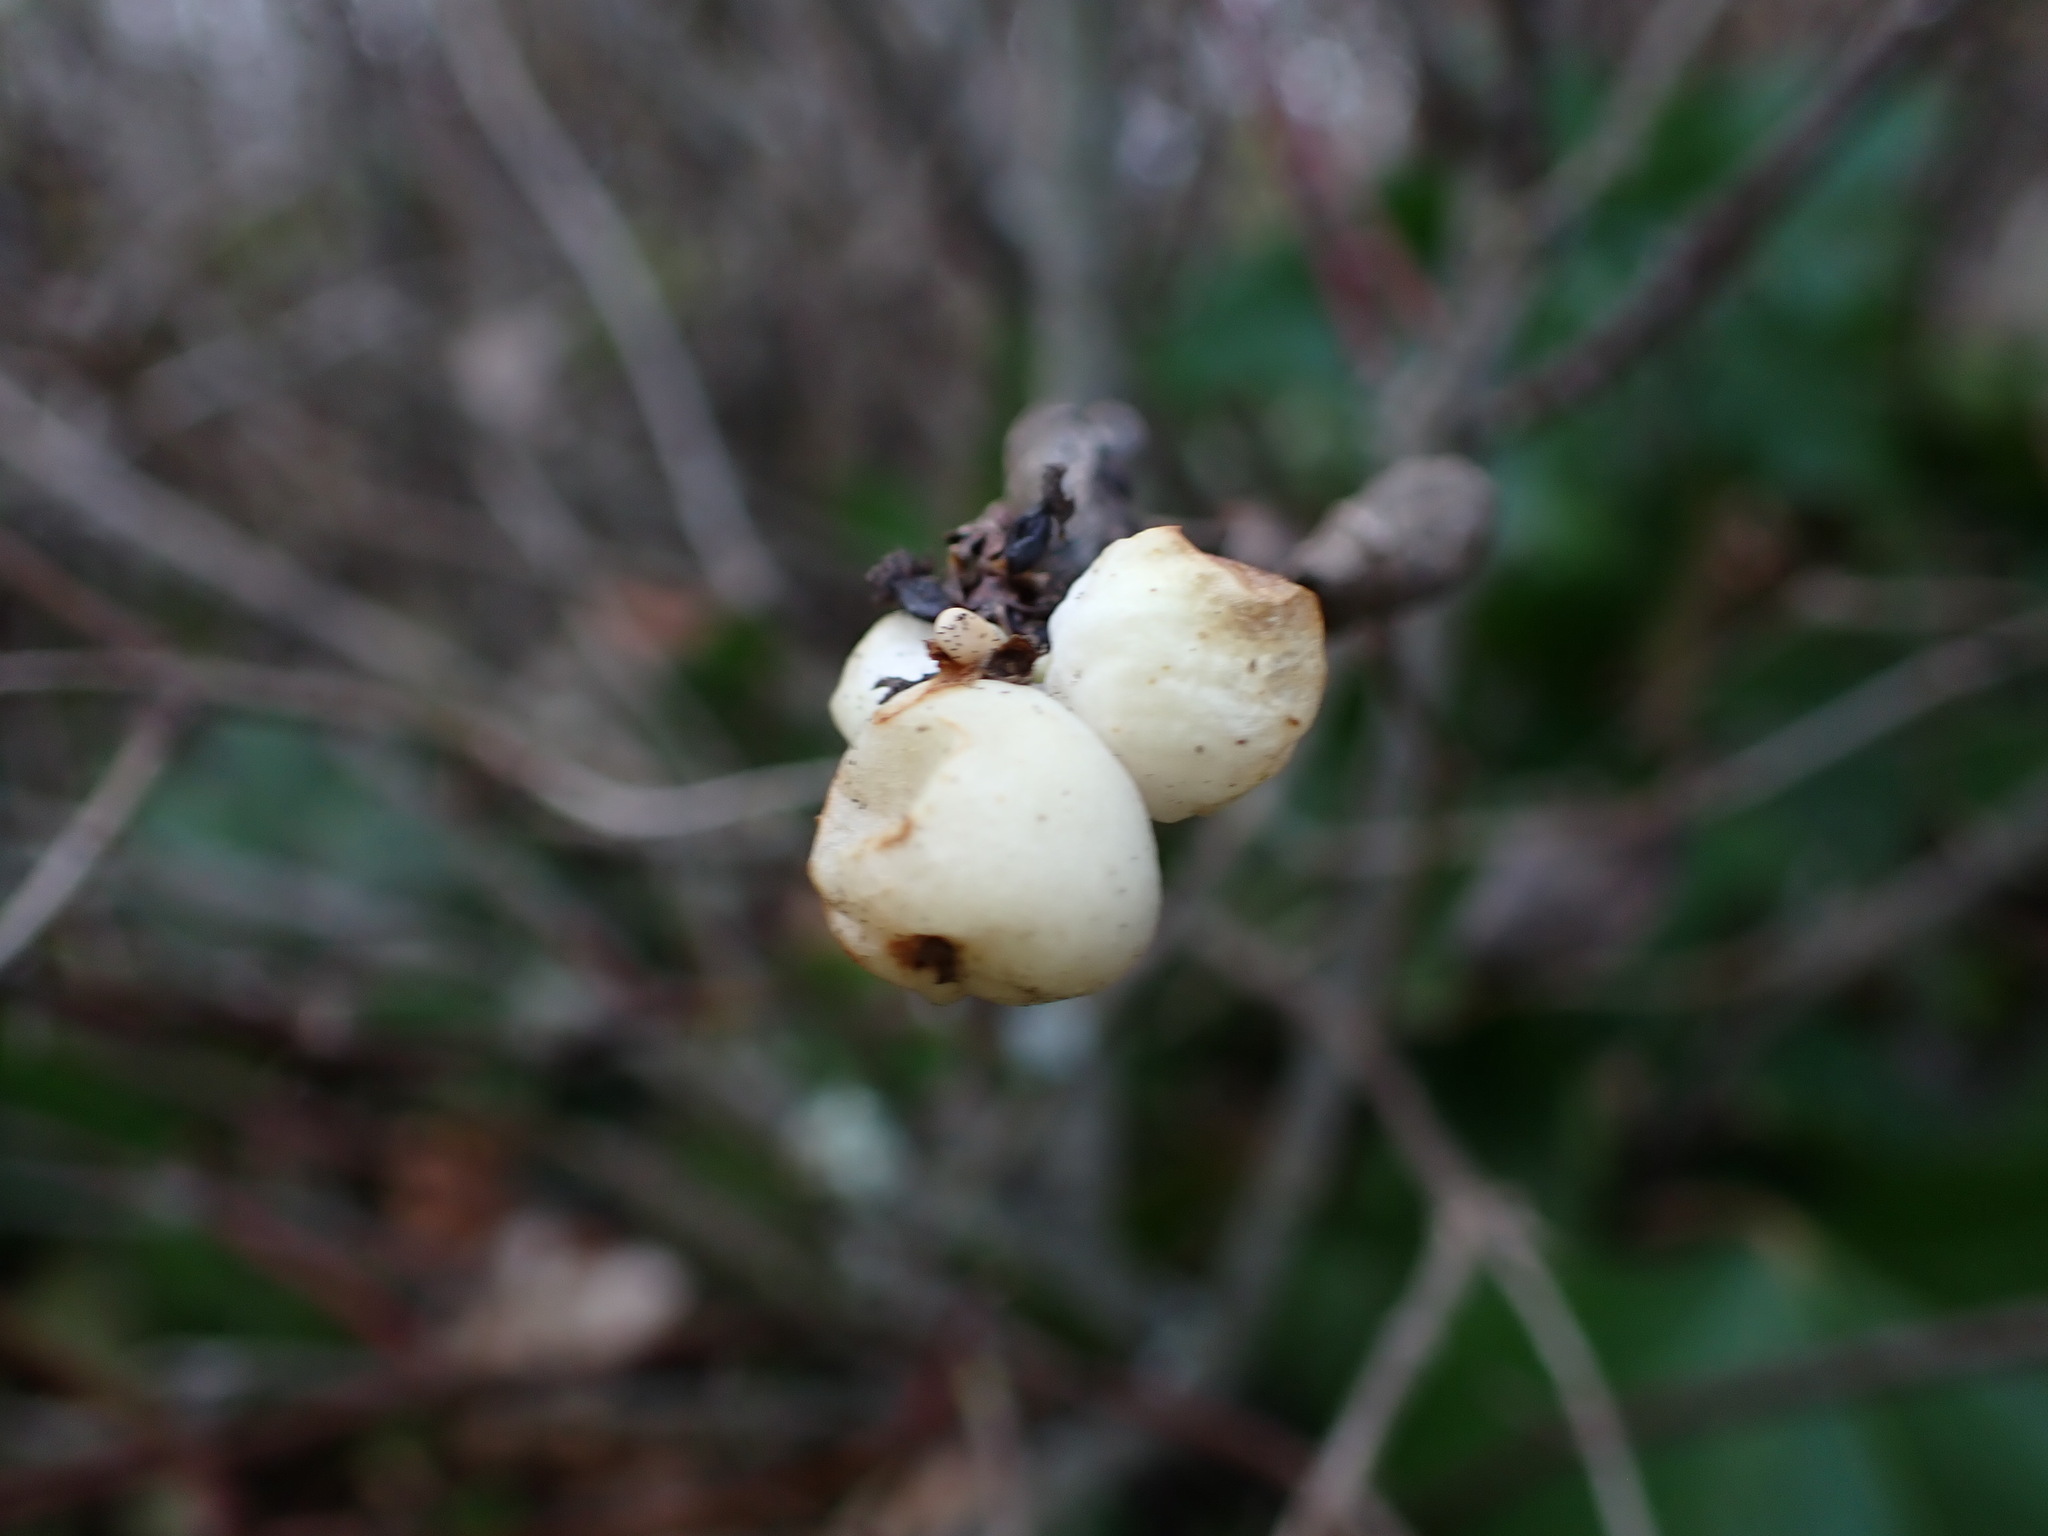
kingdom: Plantae
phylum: Tracheophyta
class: Magnoliopsida
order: Dipsacales
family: Caprifoliaceae
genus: Symphoricarpos
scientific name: Symphoricarpos albus
